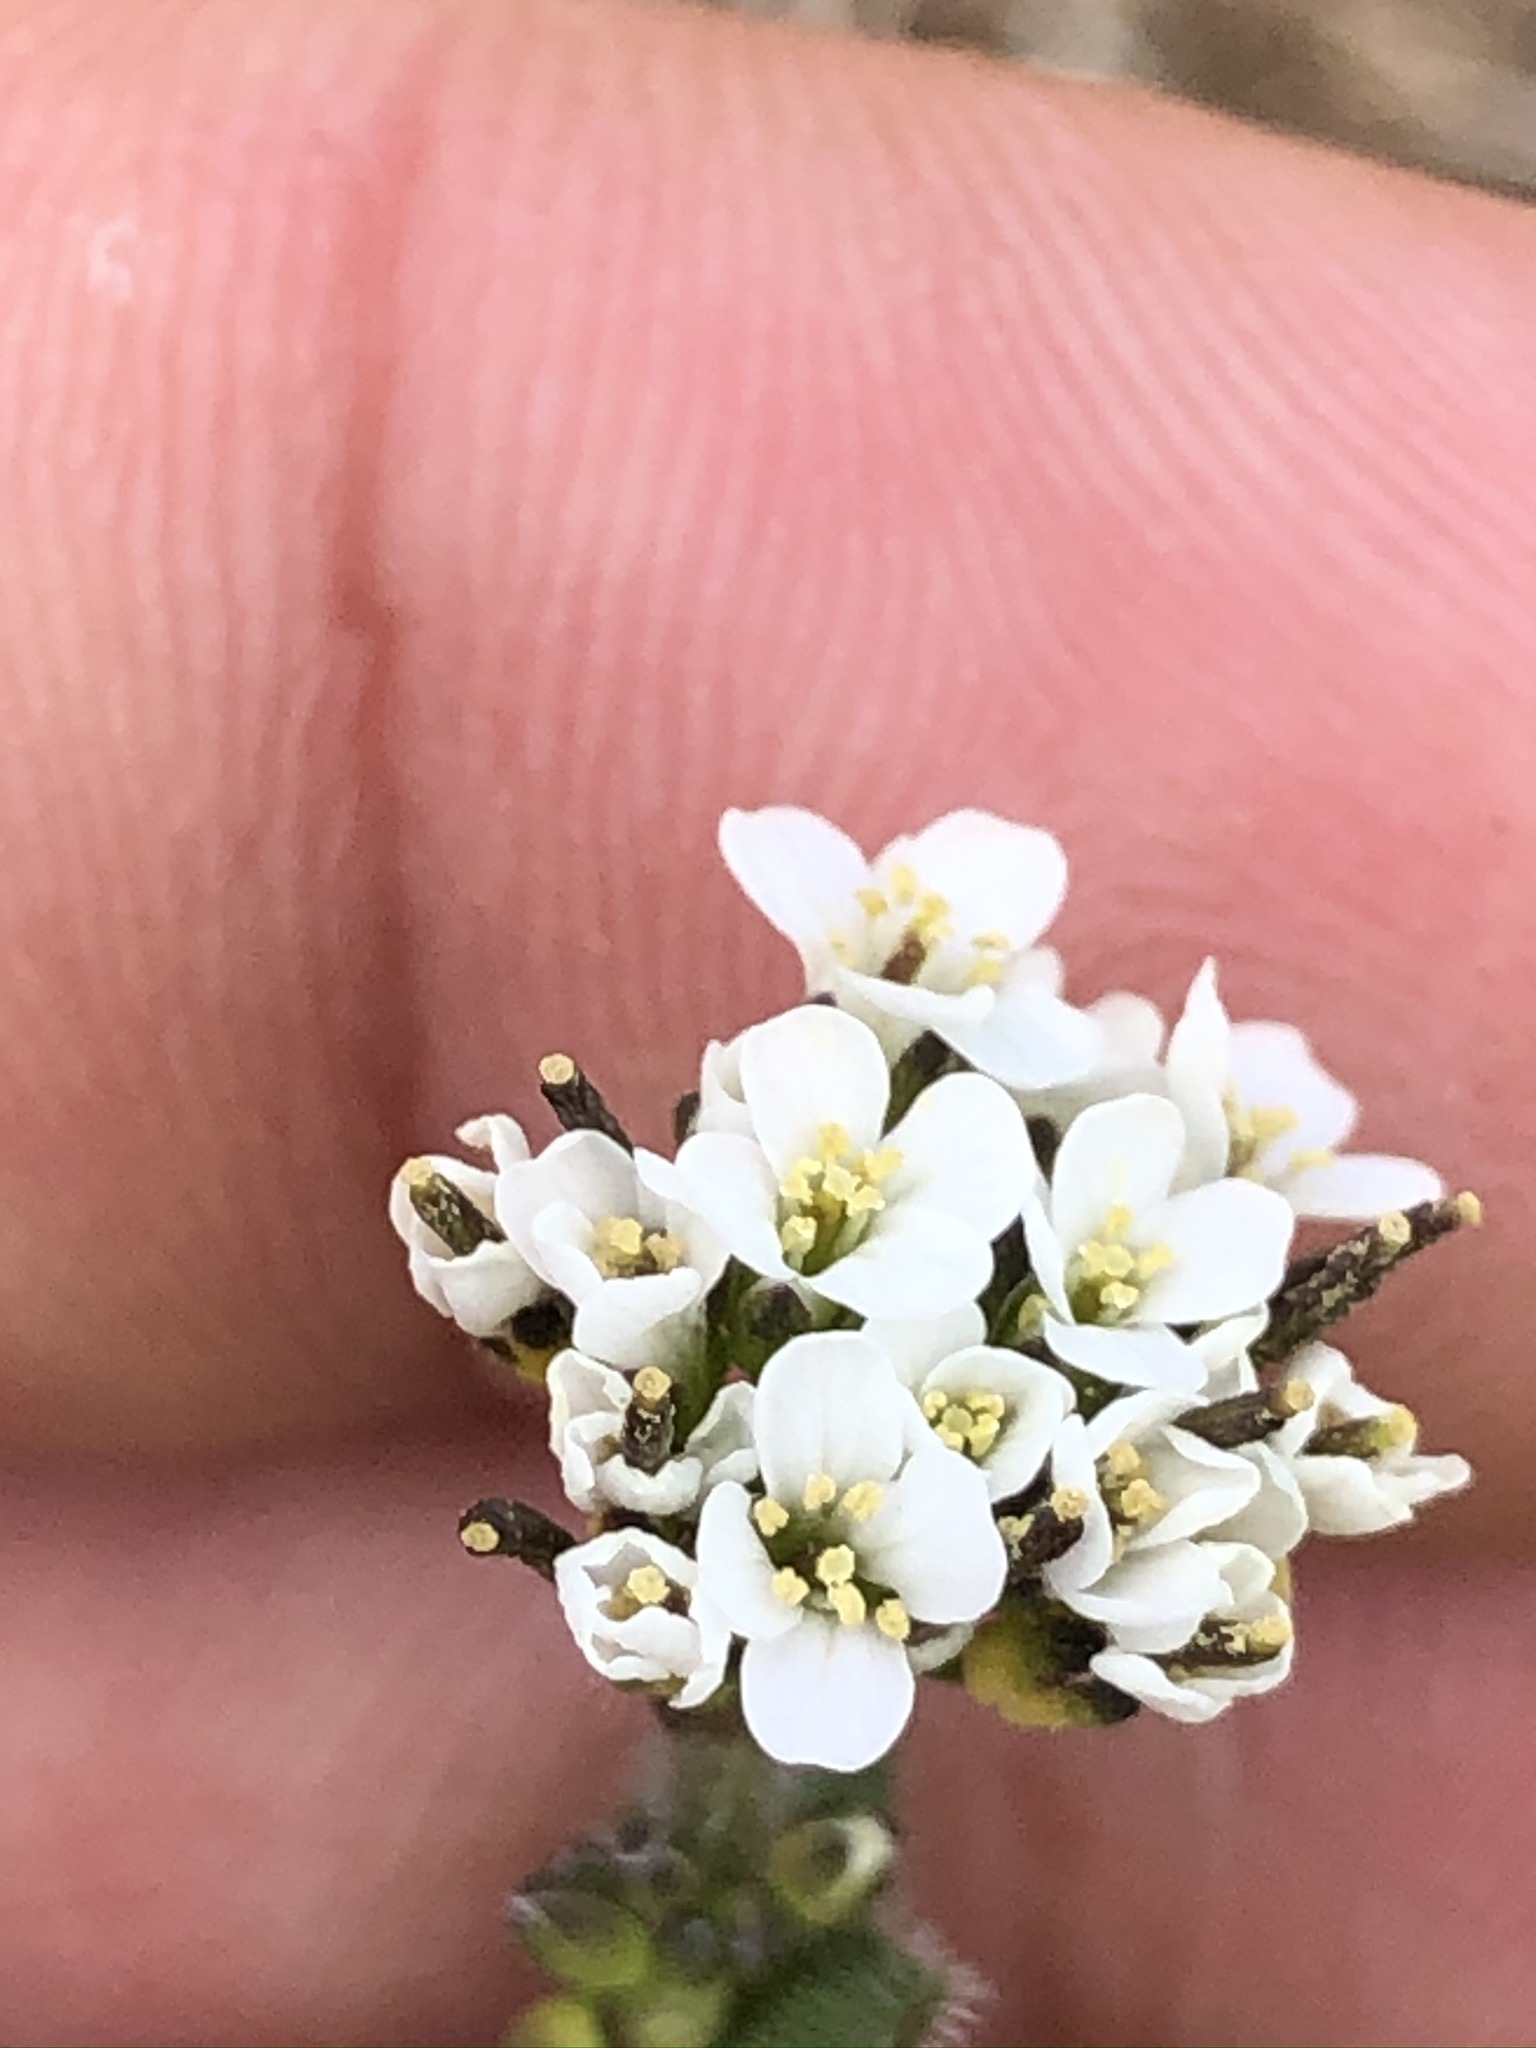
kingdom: Plantae
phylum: Tracheophyta
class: Magnoliopsida
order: Brassicales
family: Brassicaceae
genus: Arabis
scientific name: Arabis ciliata
